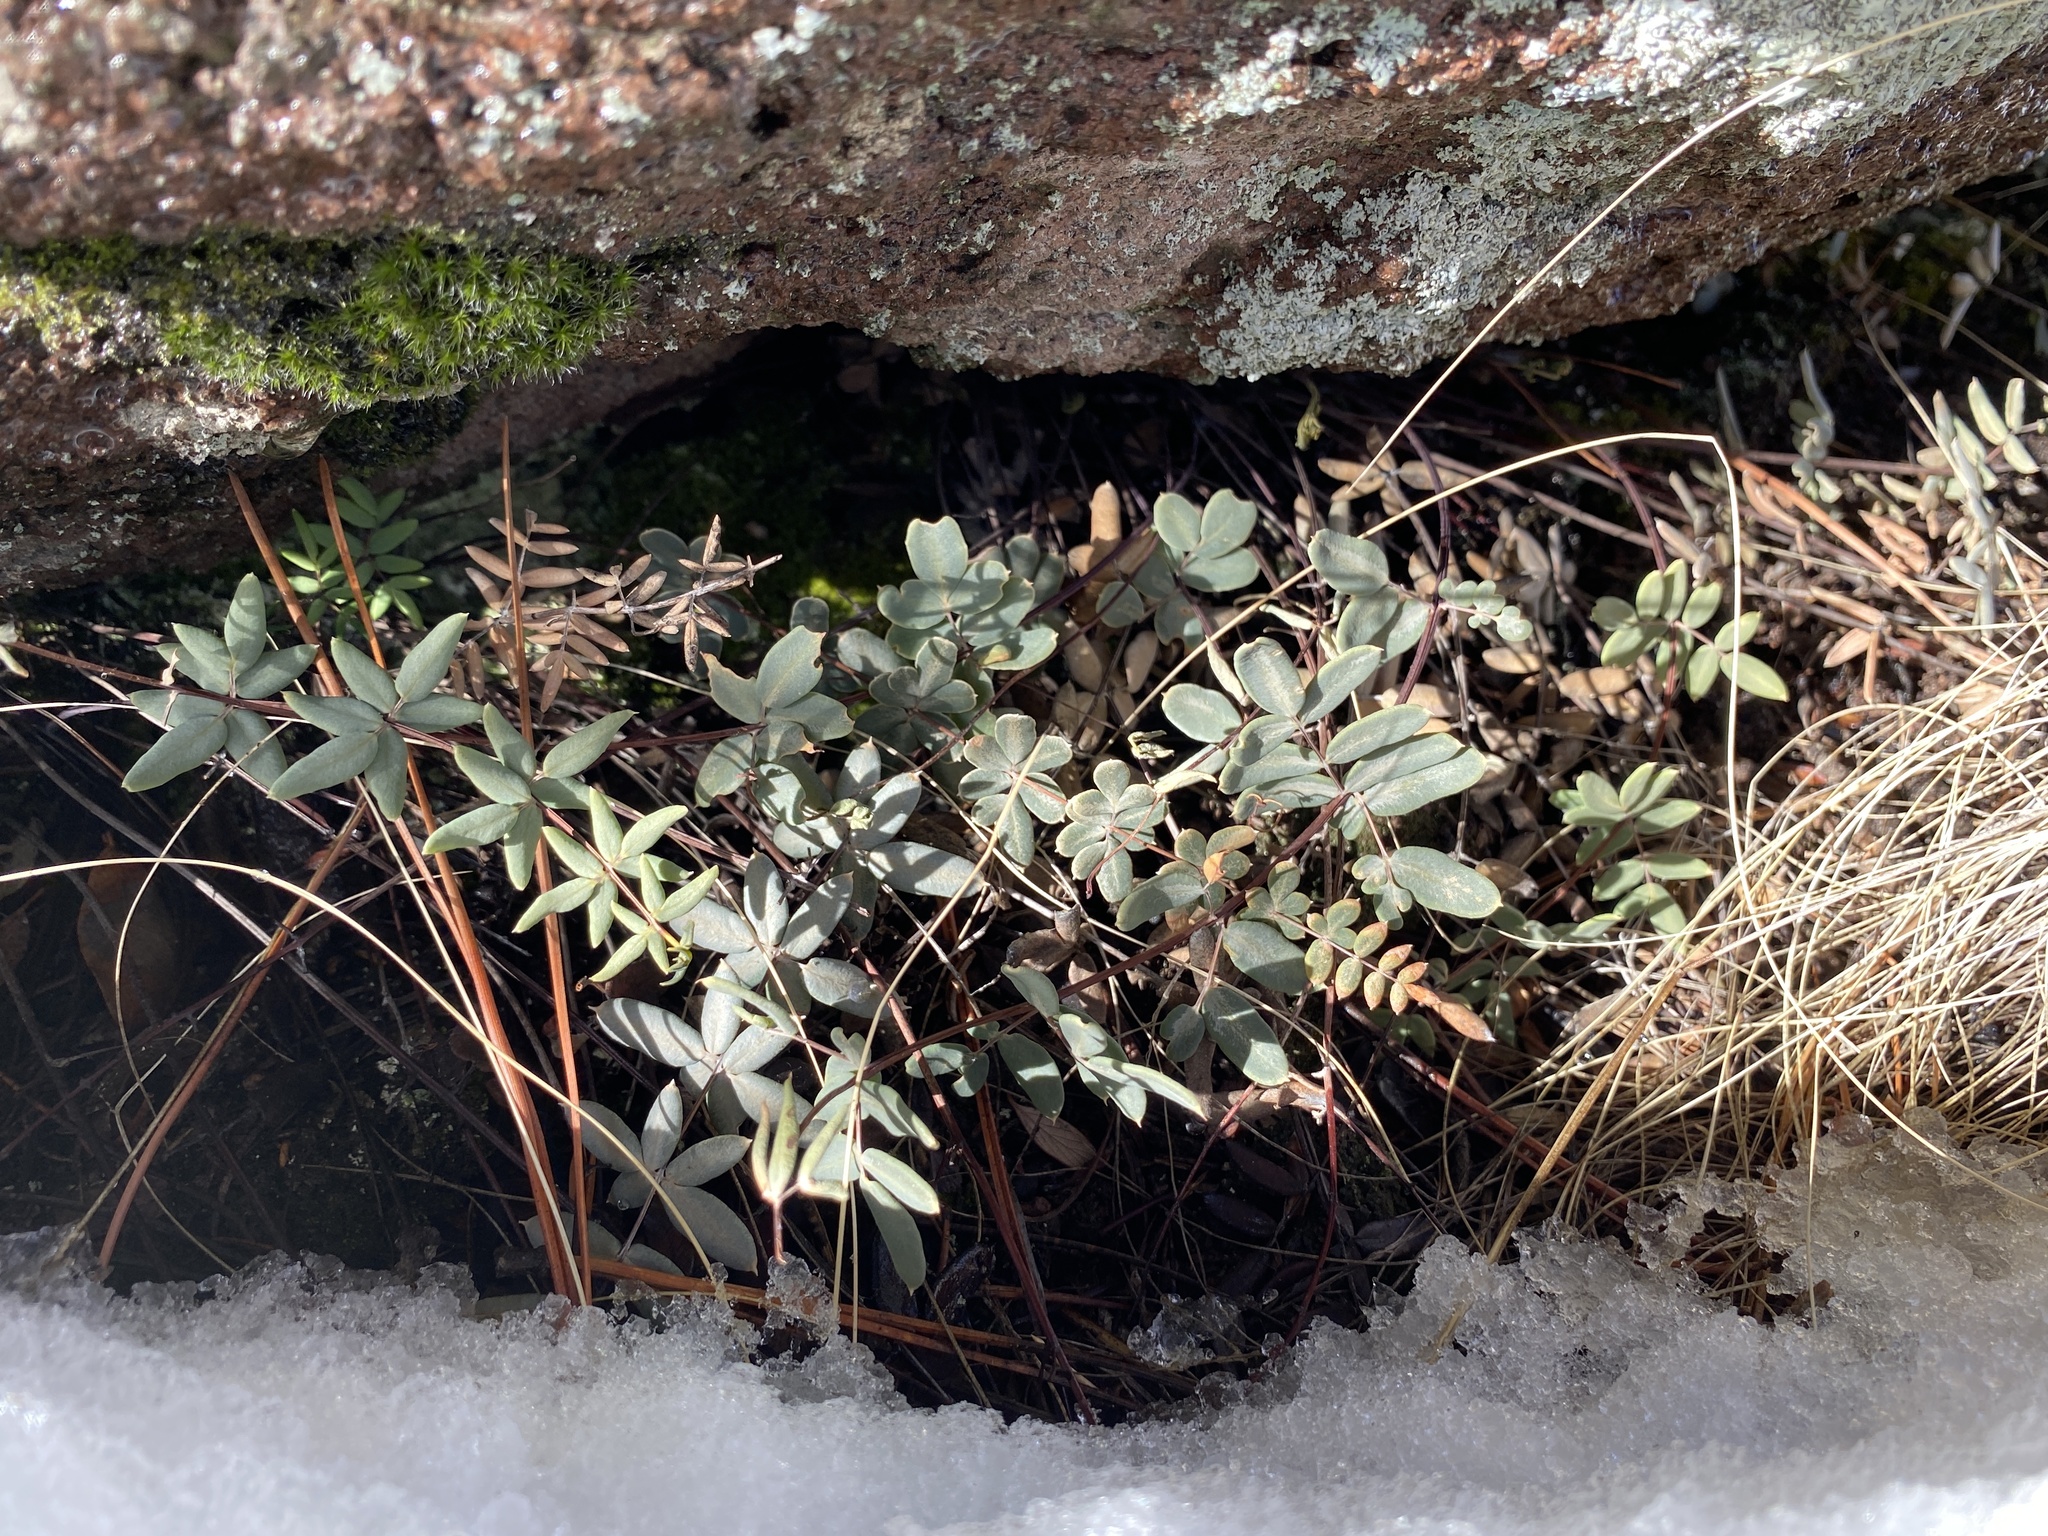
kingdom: Plantae
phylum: Tracheophyta
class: Polypodiopsida
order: Polypodiales
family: Pteridaceae
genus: Pellaea
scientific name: Pellaea wrightiana
